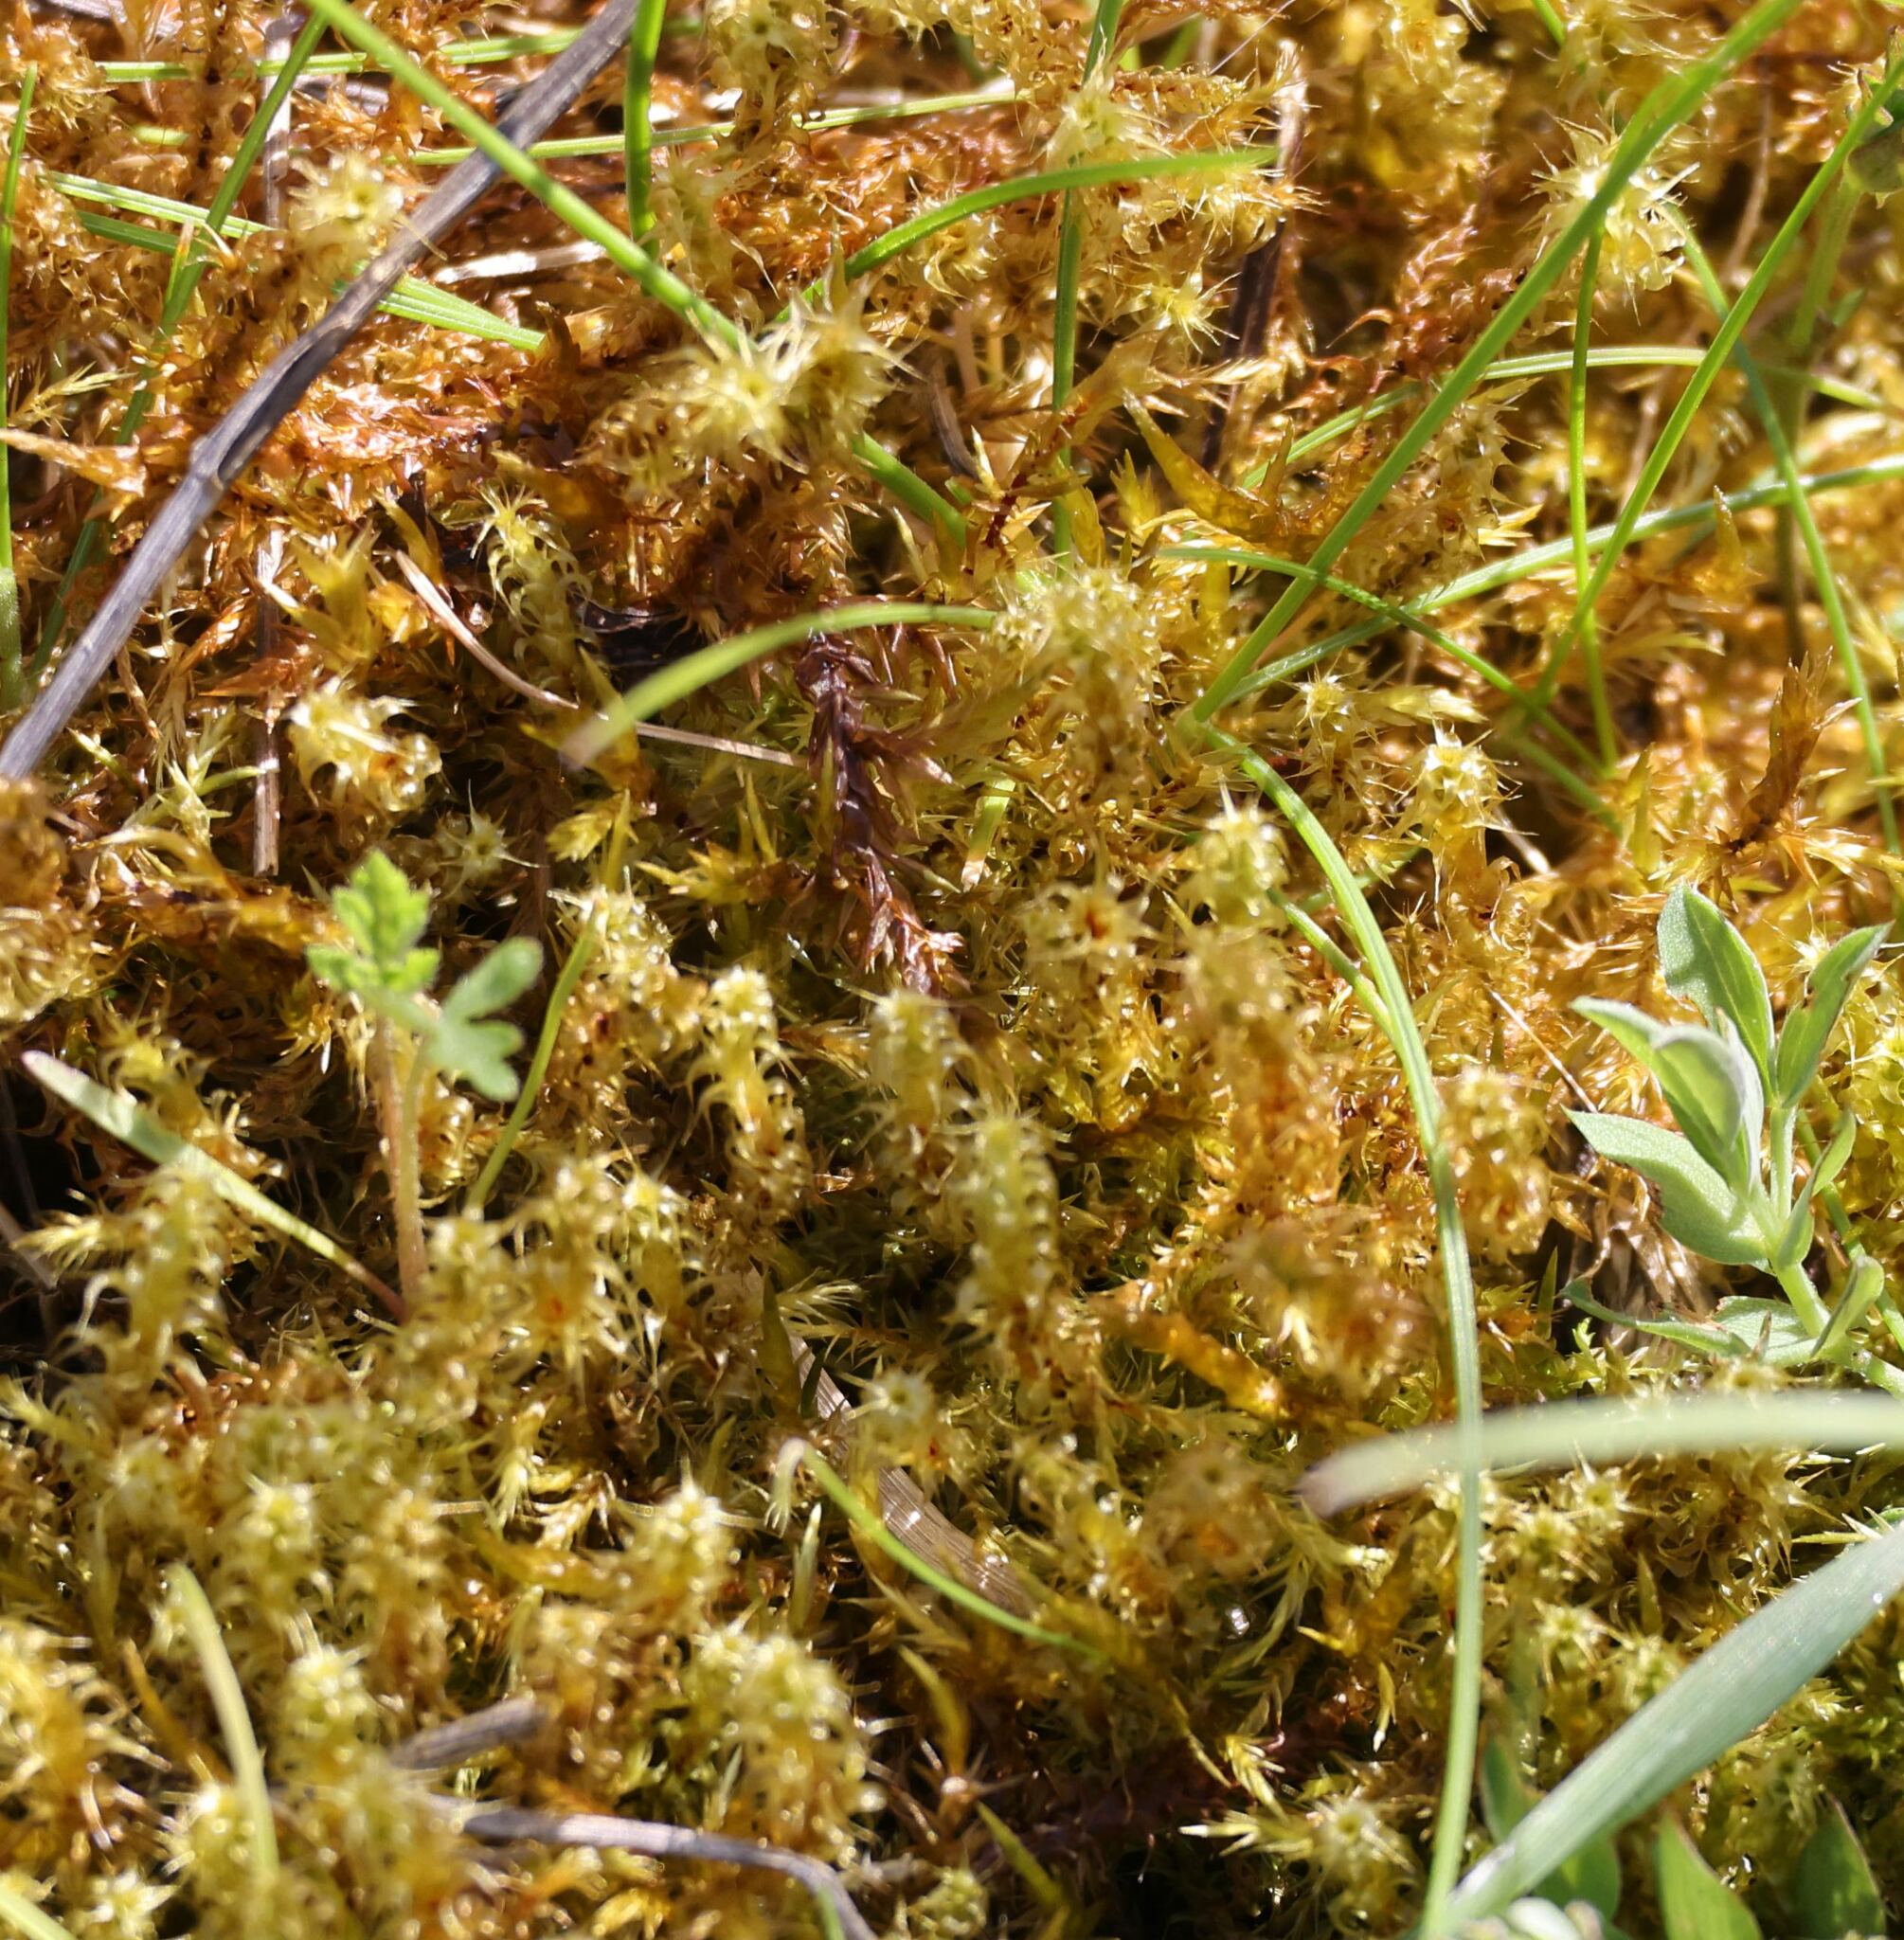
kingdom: Plantae
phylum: Bryophyta
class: Bryopsida
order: Hypnales
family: Hylocomiaceae
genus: Rhytidiadelphus
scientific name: Rhytidiadelphus squarrosus
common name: Springy turf-moss
